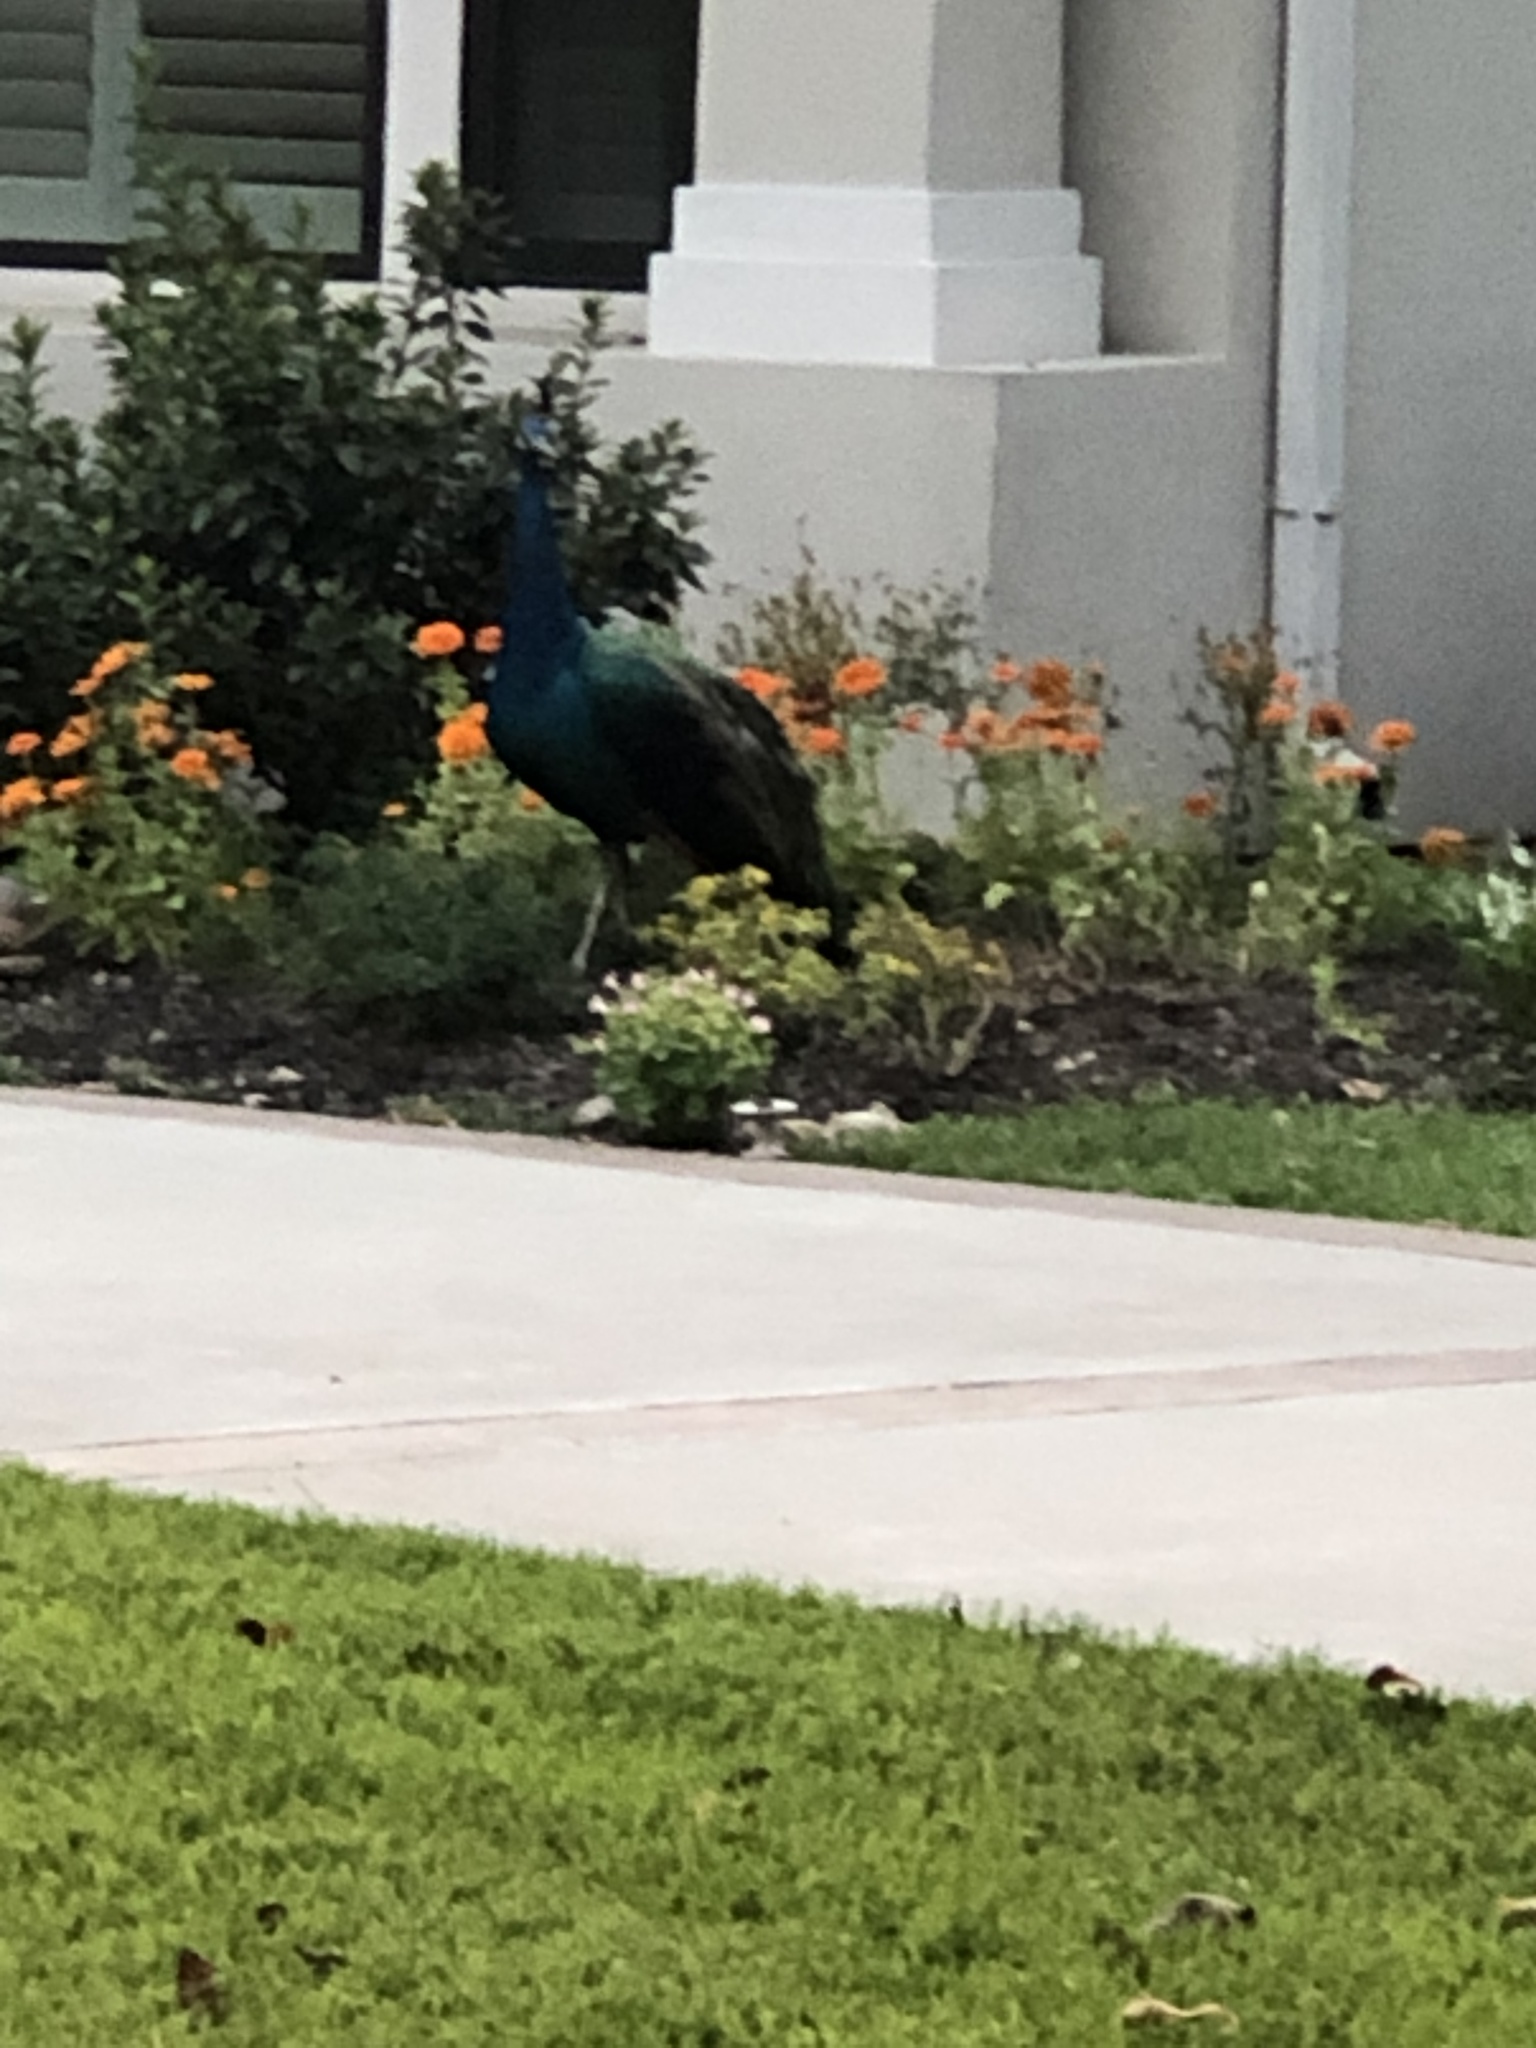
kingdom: Animalia
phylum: Chordata
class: Aves
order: Galliformes
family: Phasianidae
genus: Pavo
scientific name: Pavo cristatus
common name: Indian peafowl
